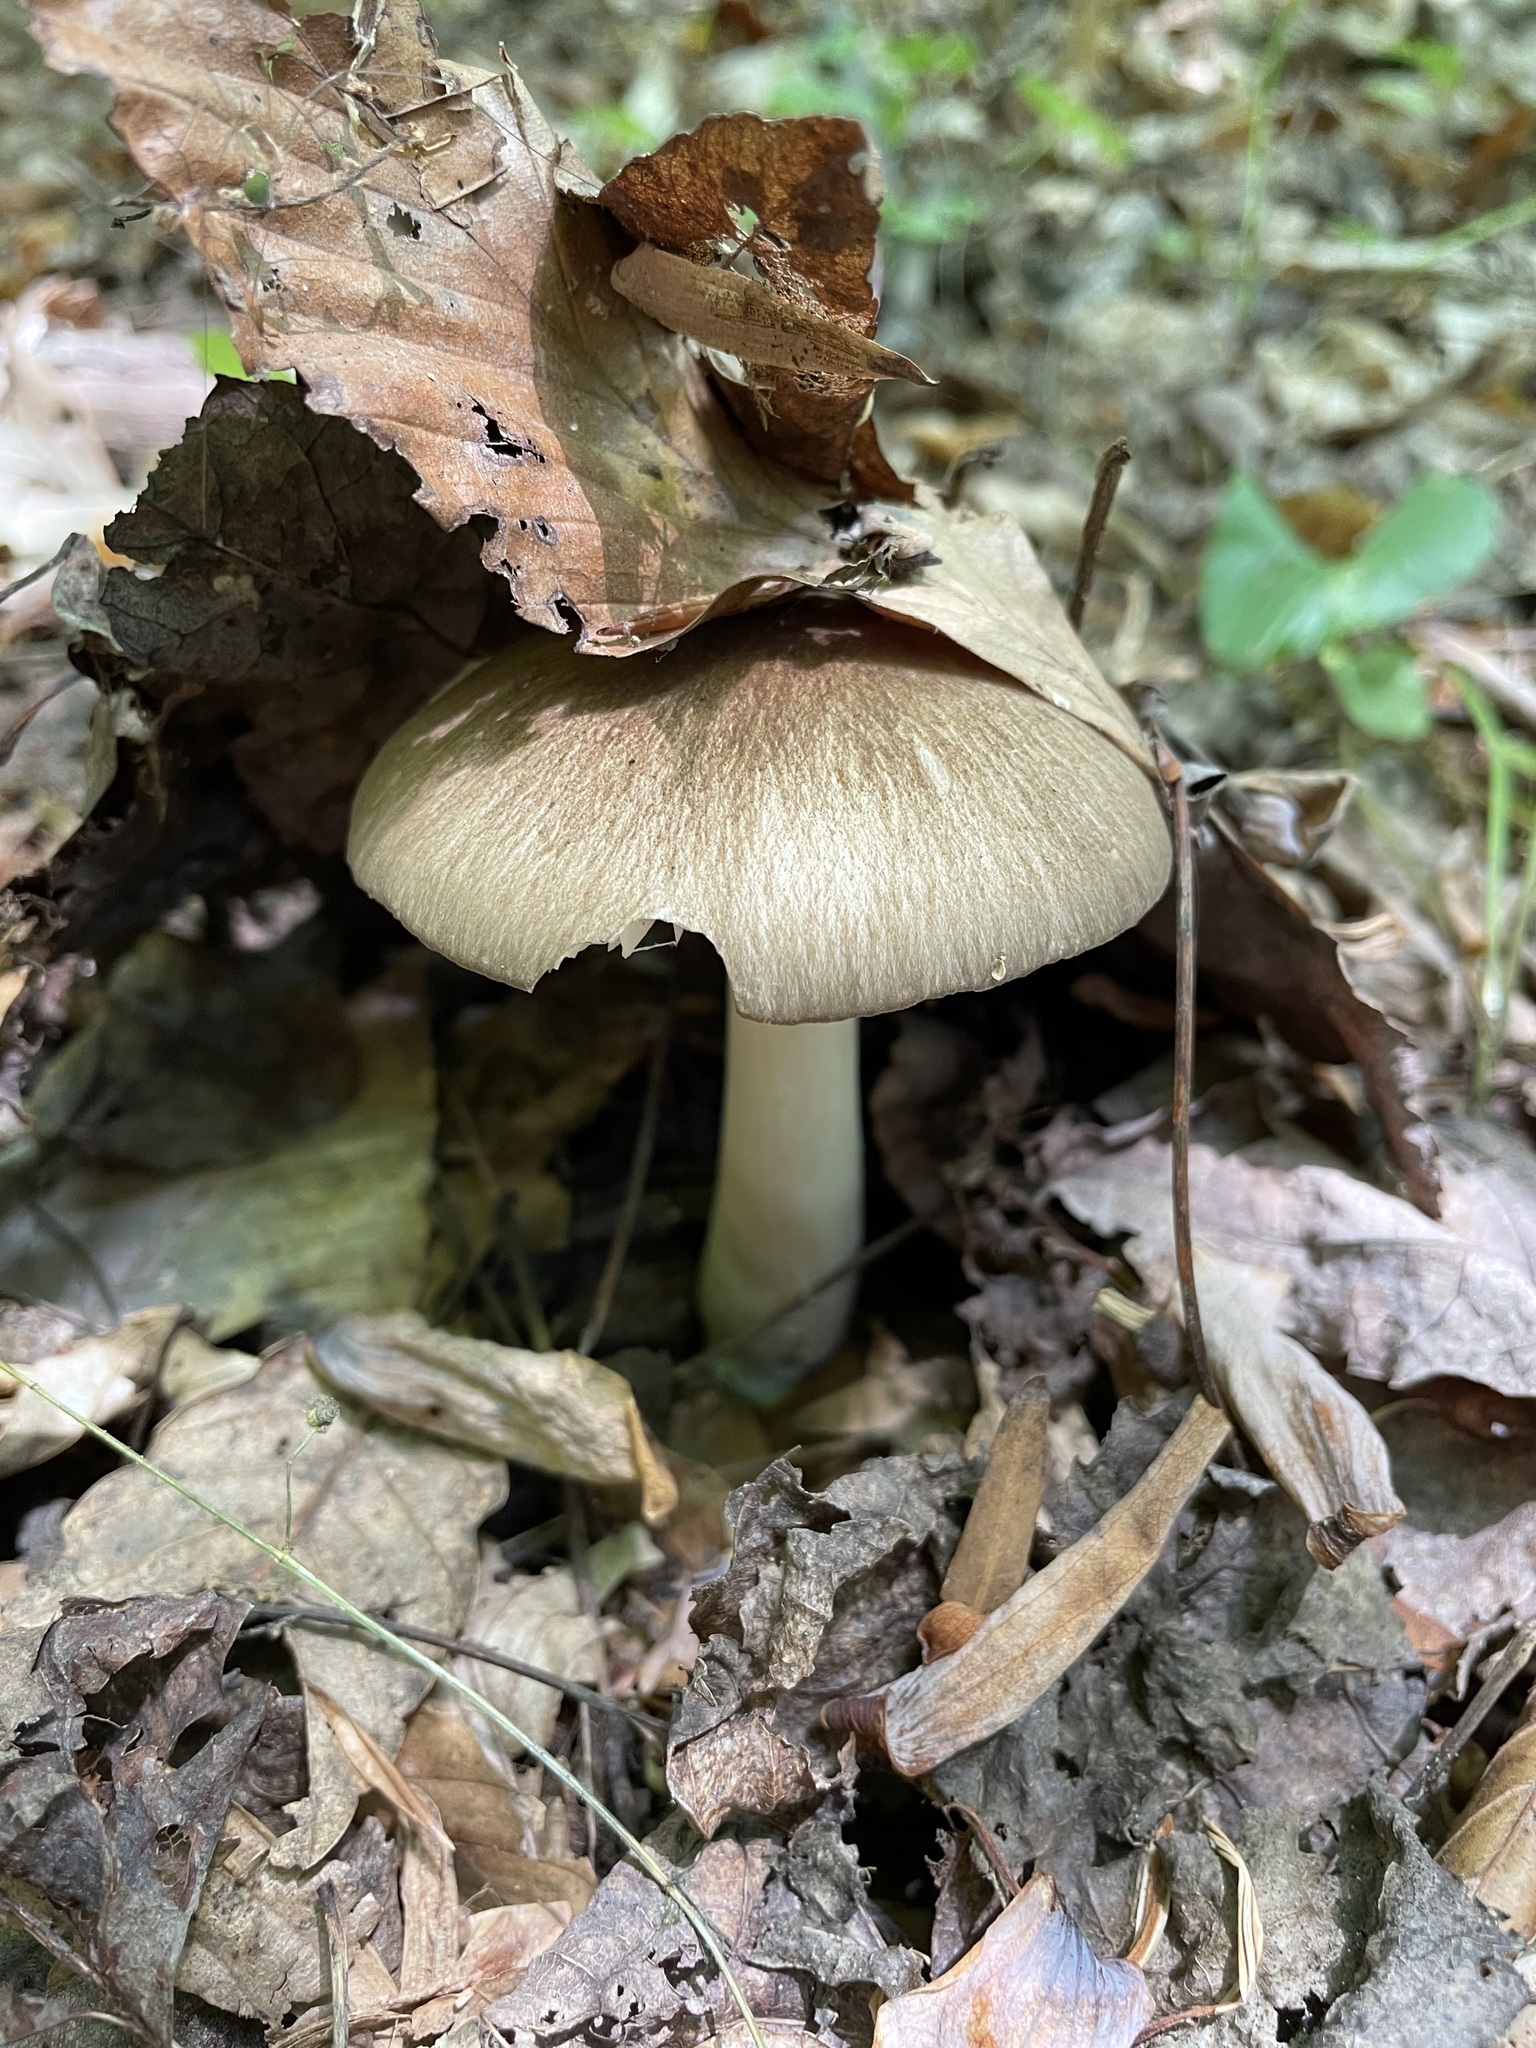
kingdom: Fungi
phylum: Basidiomycota
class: Agaricomycetes
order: Agaricales
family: Tricholomataceae
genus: Megacollybia
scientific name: Megacollybia rodmanii
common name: Eastern american platterful mushroom
